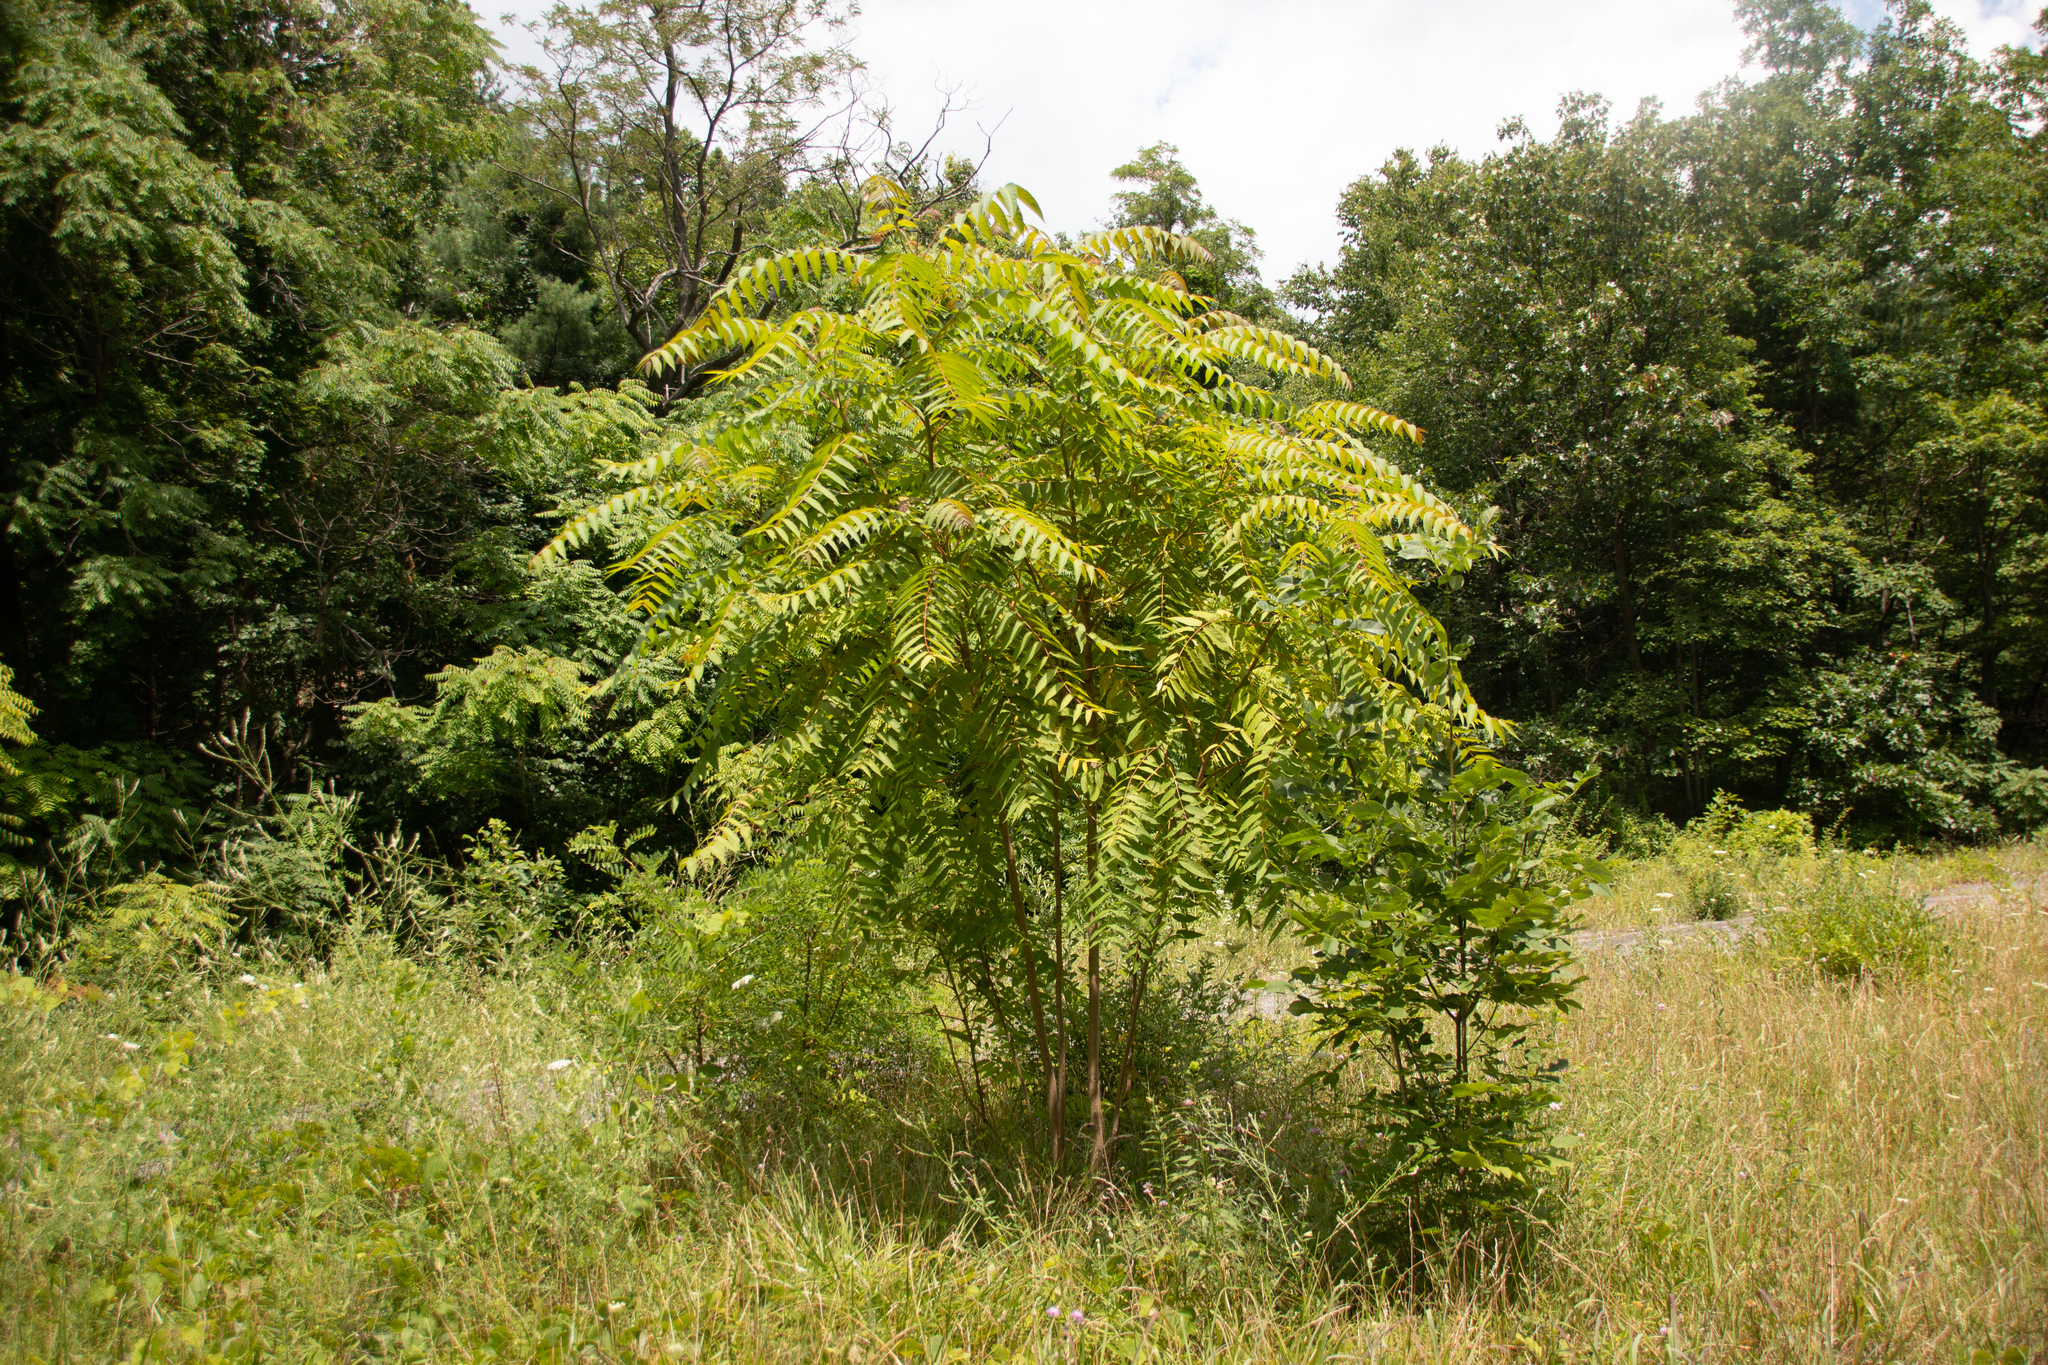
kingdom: Plantae
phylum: Tracheophyta
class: Magnoliopsida
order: Sapindales
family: Simaroubaceae
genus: Ailanthus
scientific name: Ailanthus altissima
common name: Tree-of-heaven
